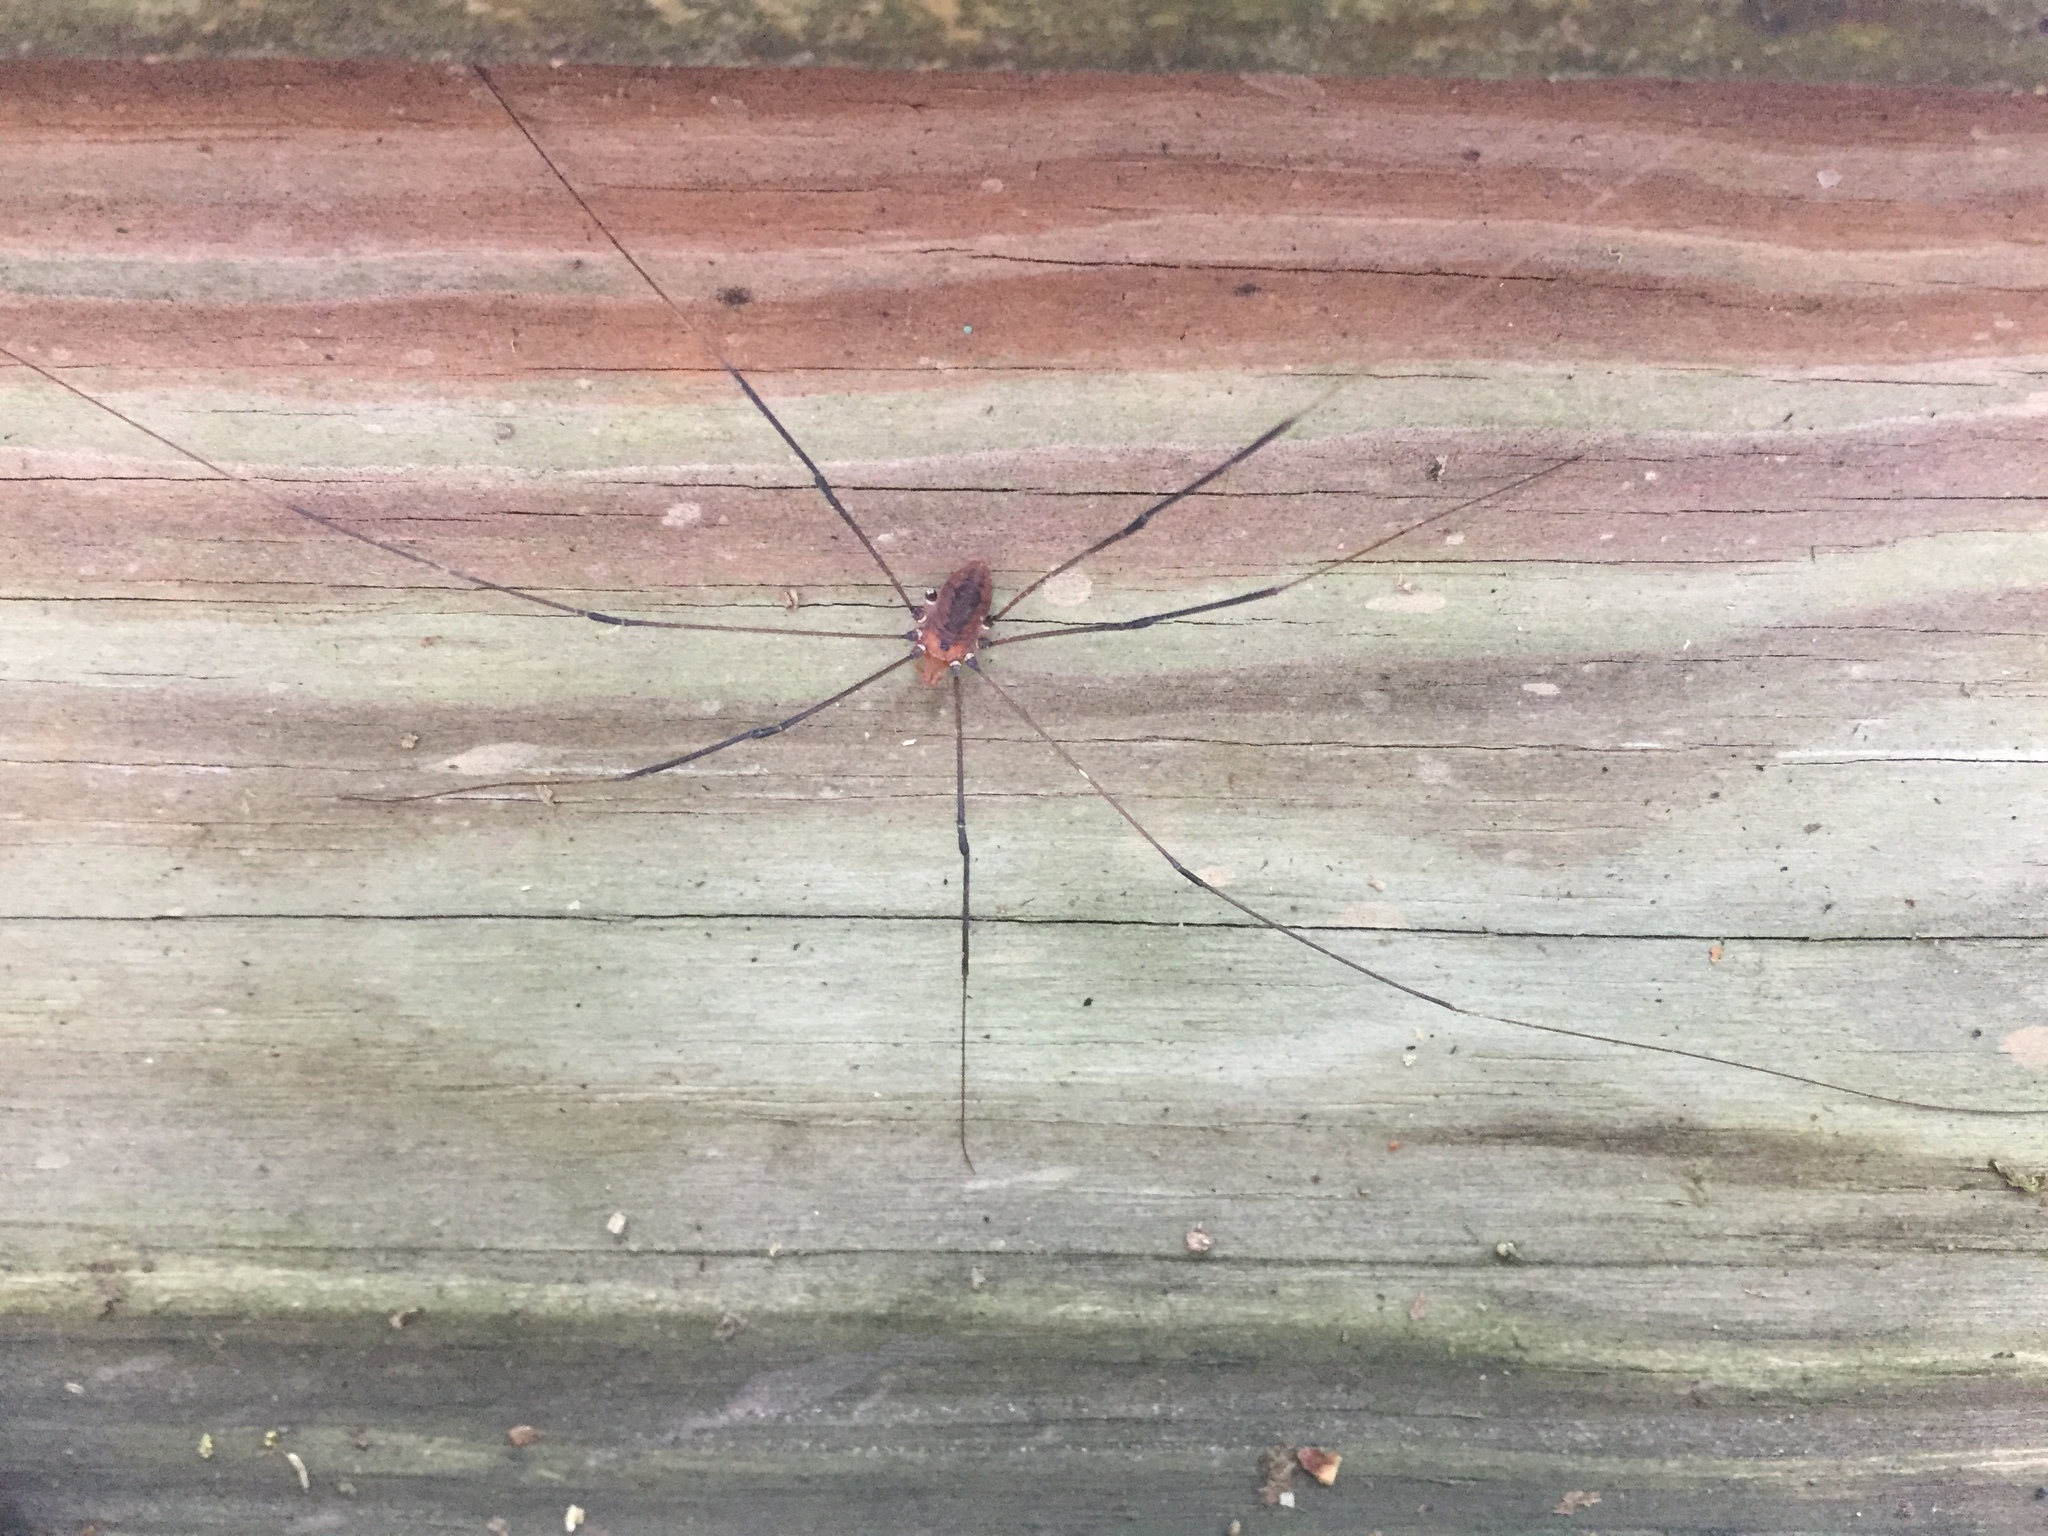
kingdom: Animalia
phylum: Arthropoda
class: Arachnida
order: Opiliones
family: Sclerosomatidae
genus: Leiobunum
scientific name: Leiobunum vittatum
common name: Eastern harvestman
